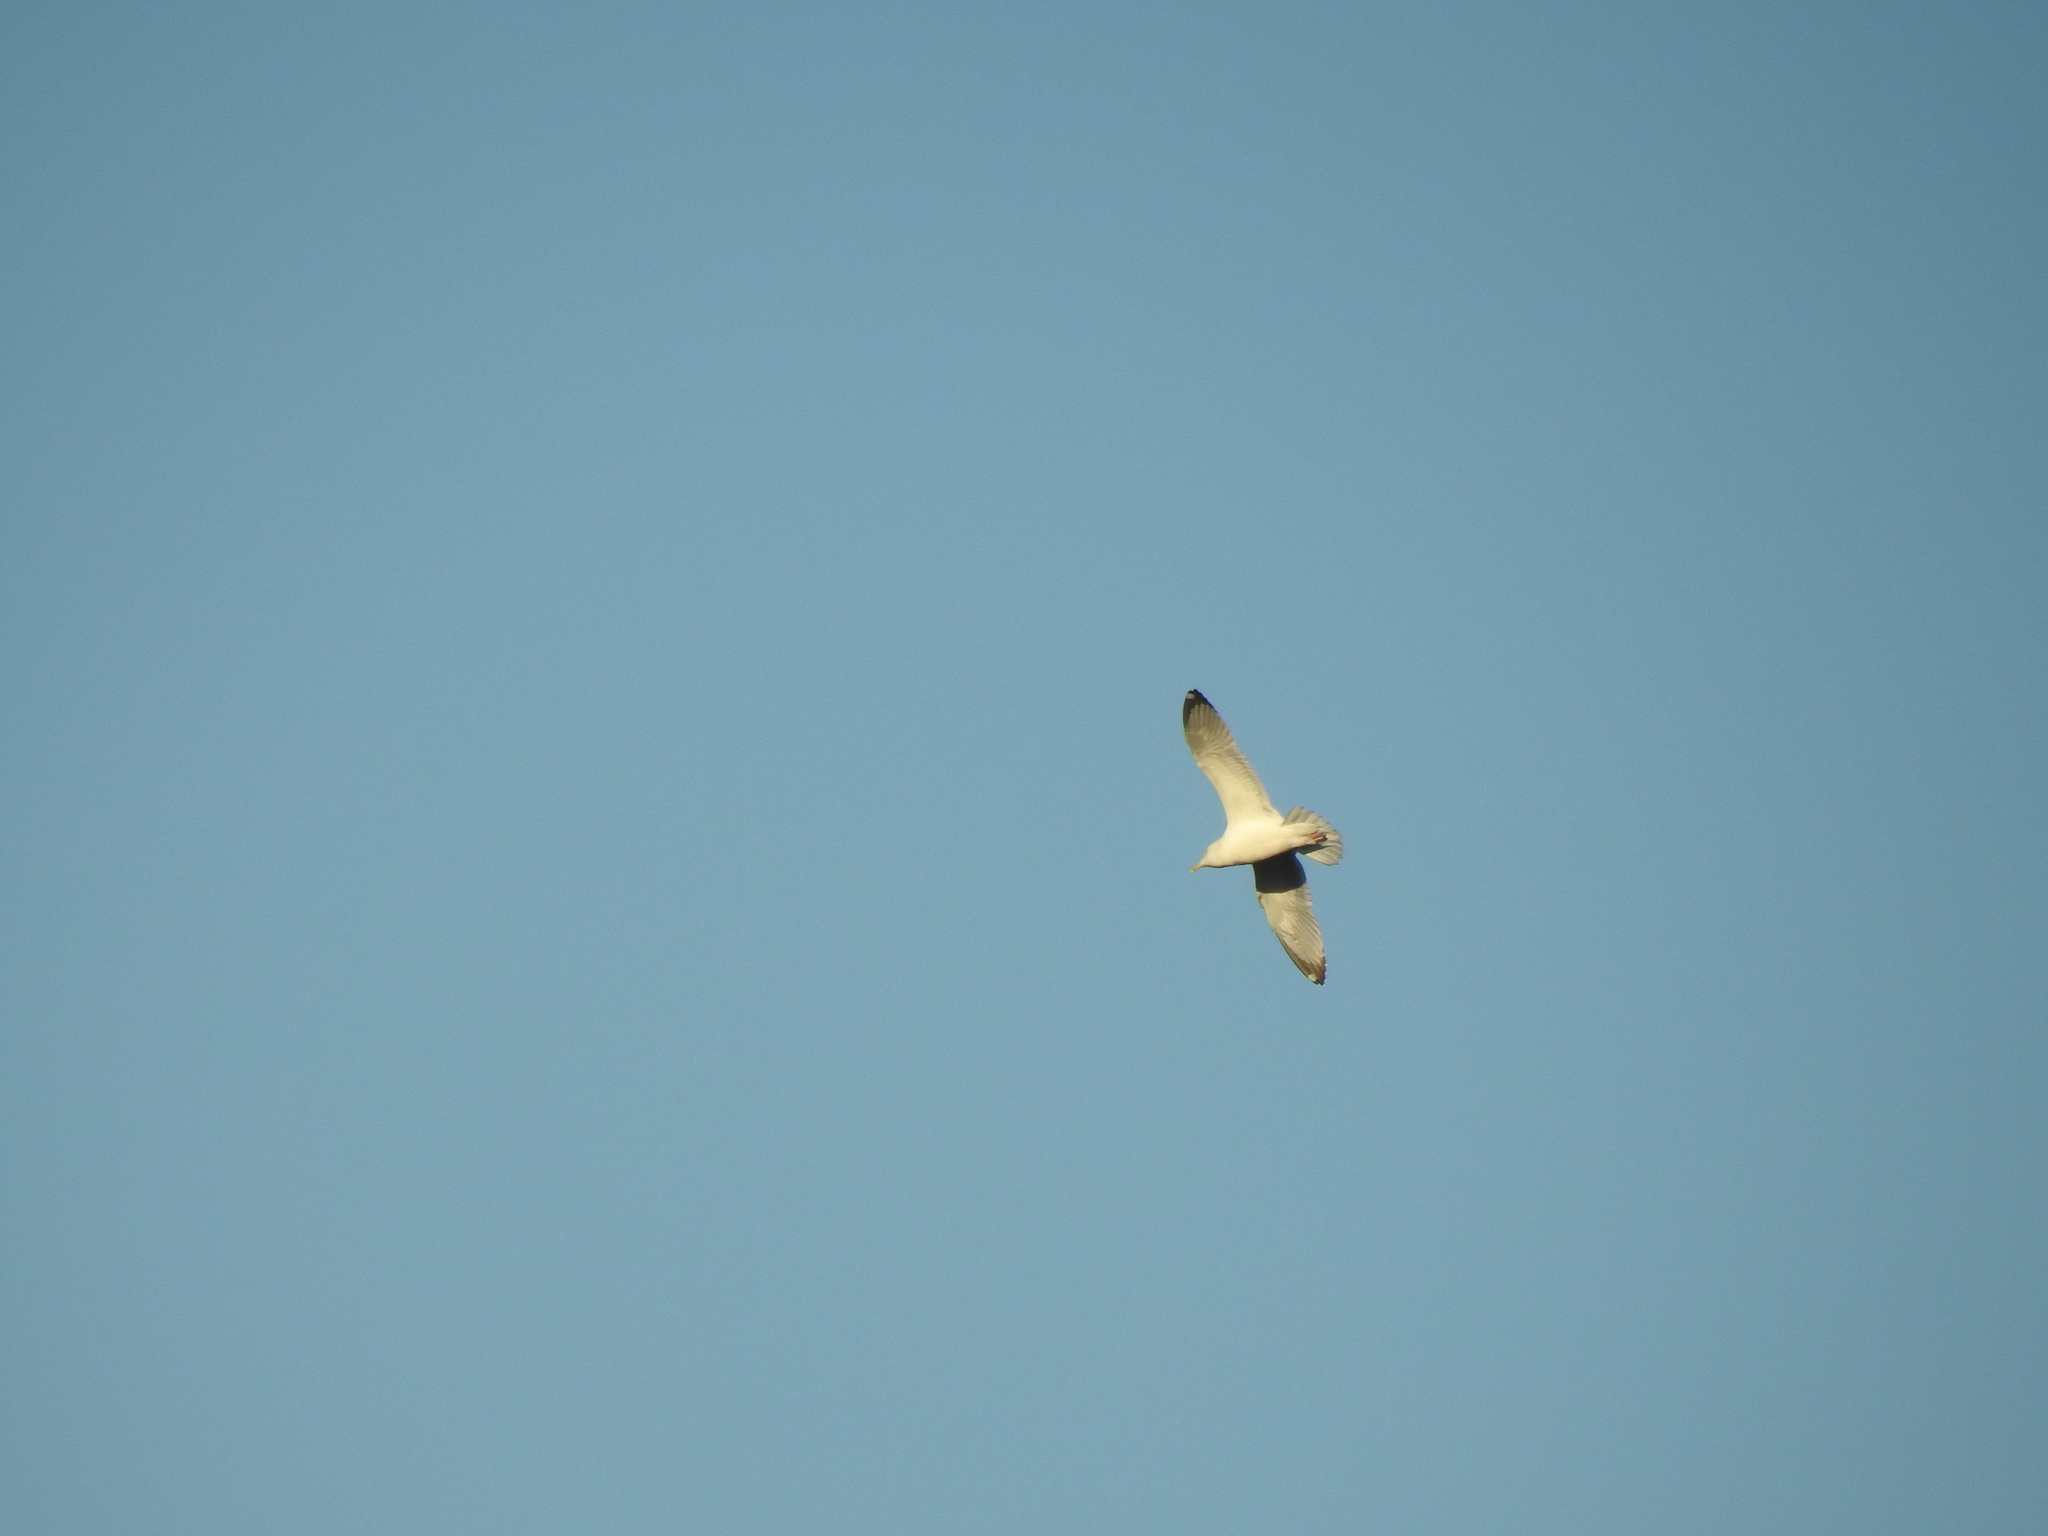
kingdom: Animalia
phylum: Chordata
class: Aves
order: Charadriiformes
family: Laridae
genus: Larus
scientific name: Larus delawarensis
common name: Ring-billed gull
